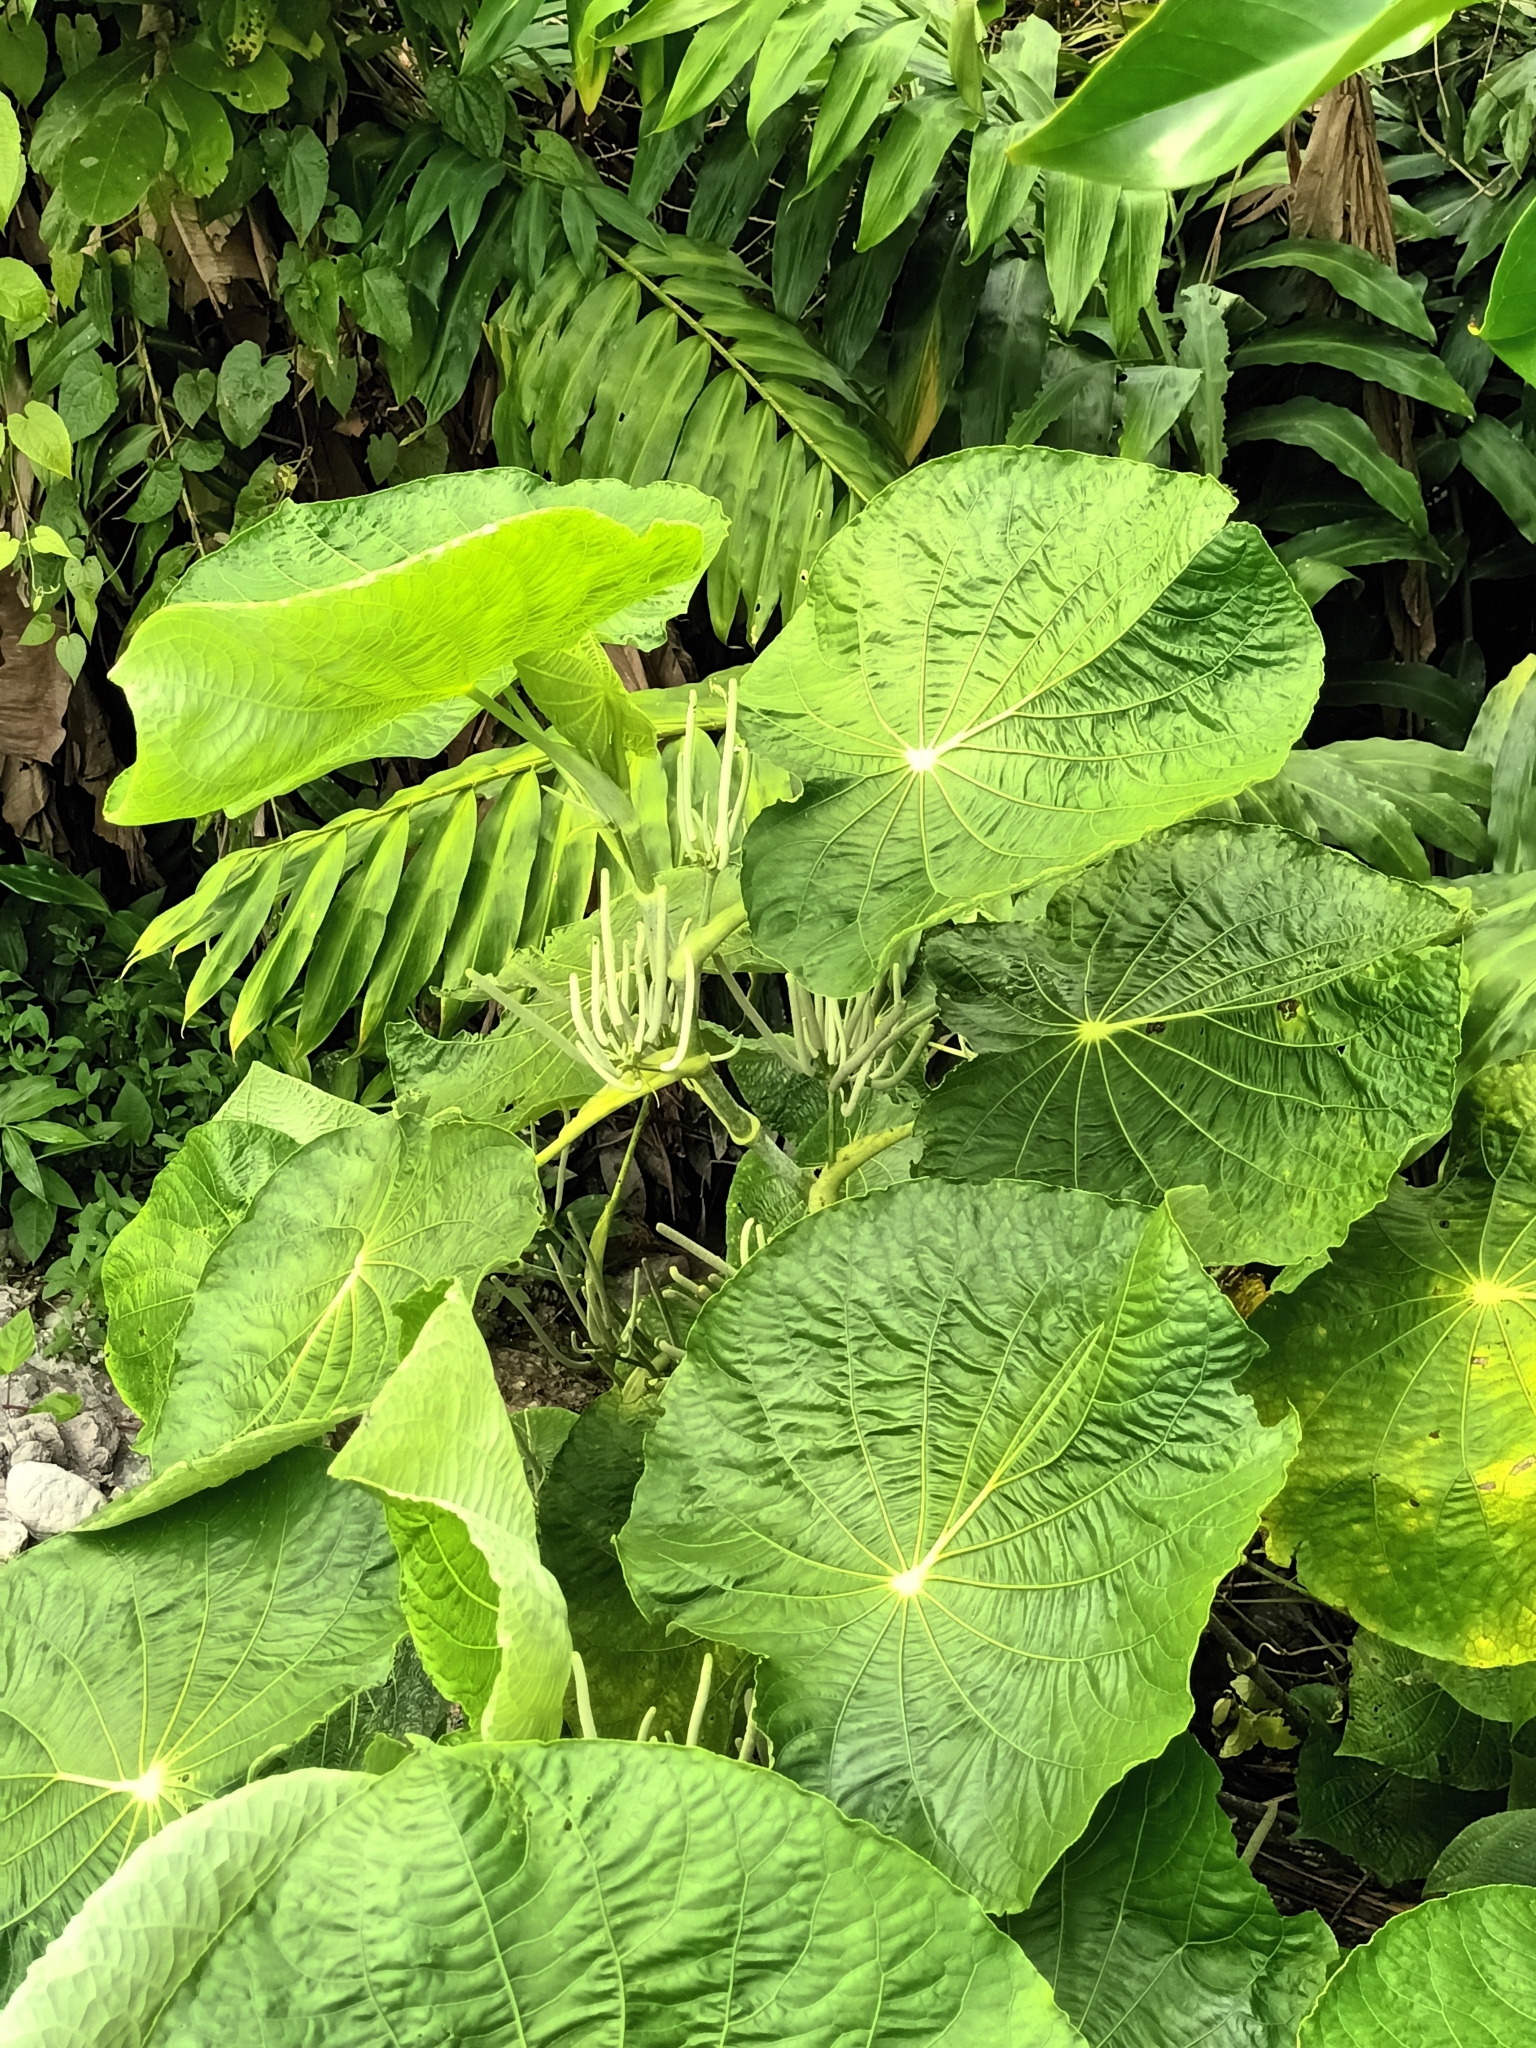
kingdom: Plantae
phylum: Tracheophyta
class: Magnoliopsida
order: Piperales
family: Piperaceae
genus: Piper
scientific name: Piper peltatum
